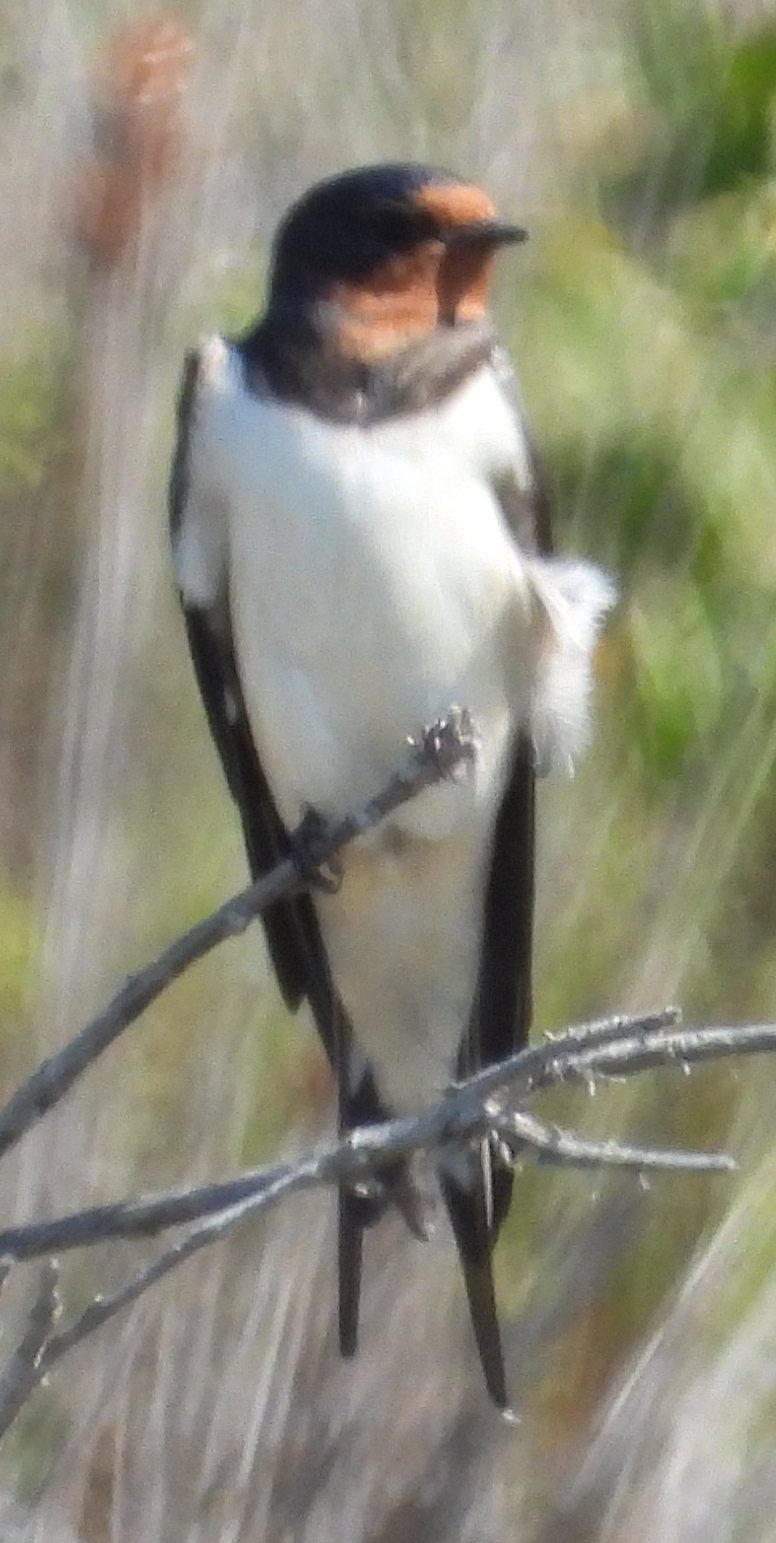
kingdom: Animalia
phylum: Chordata
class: Aves
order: Passeriformes
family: Hirundinidae
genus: Hirundo
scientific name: Hirundo rustica
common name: Barn swallow
